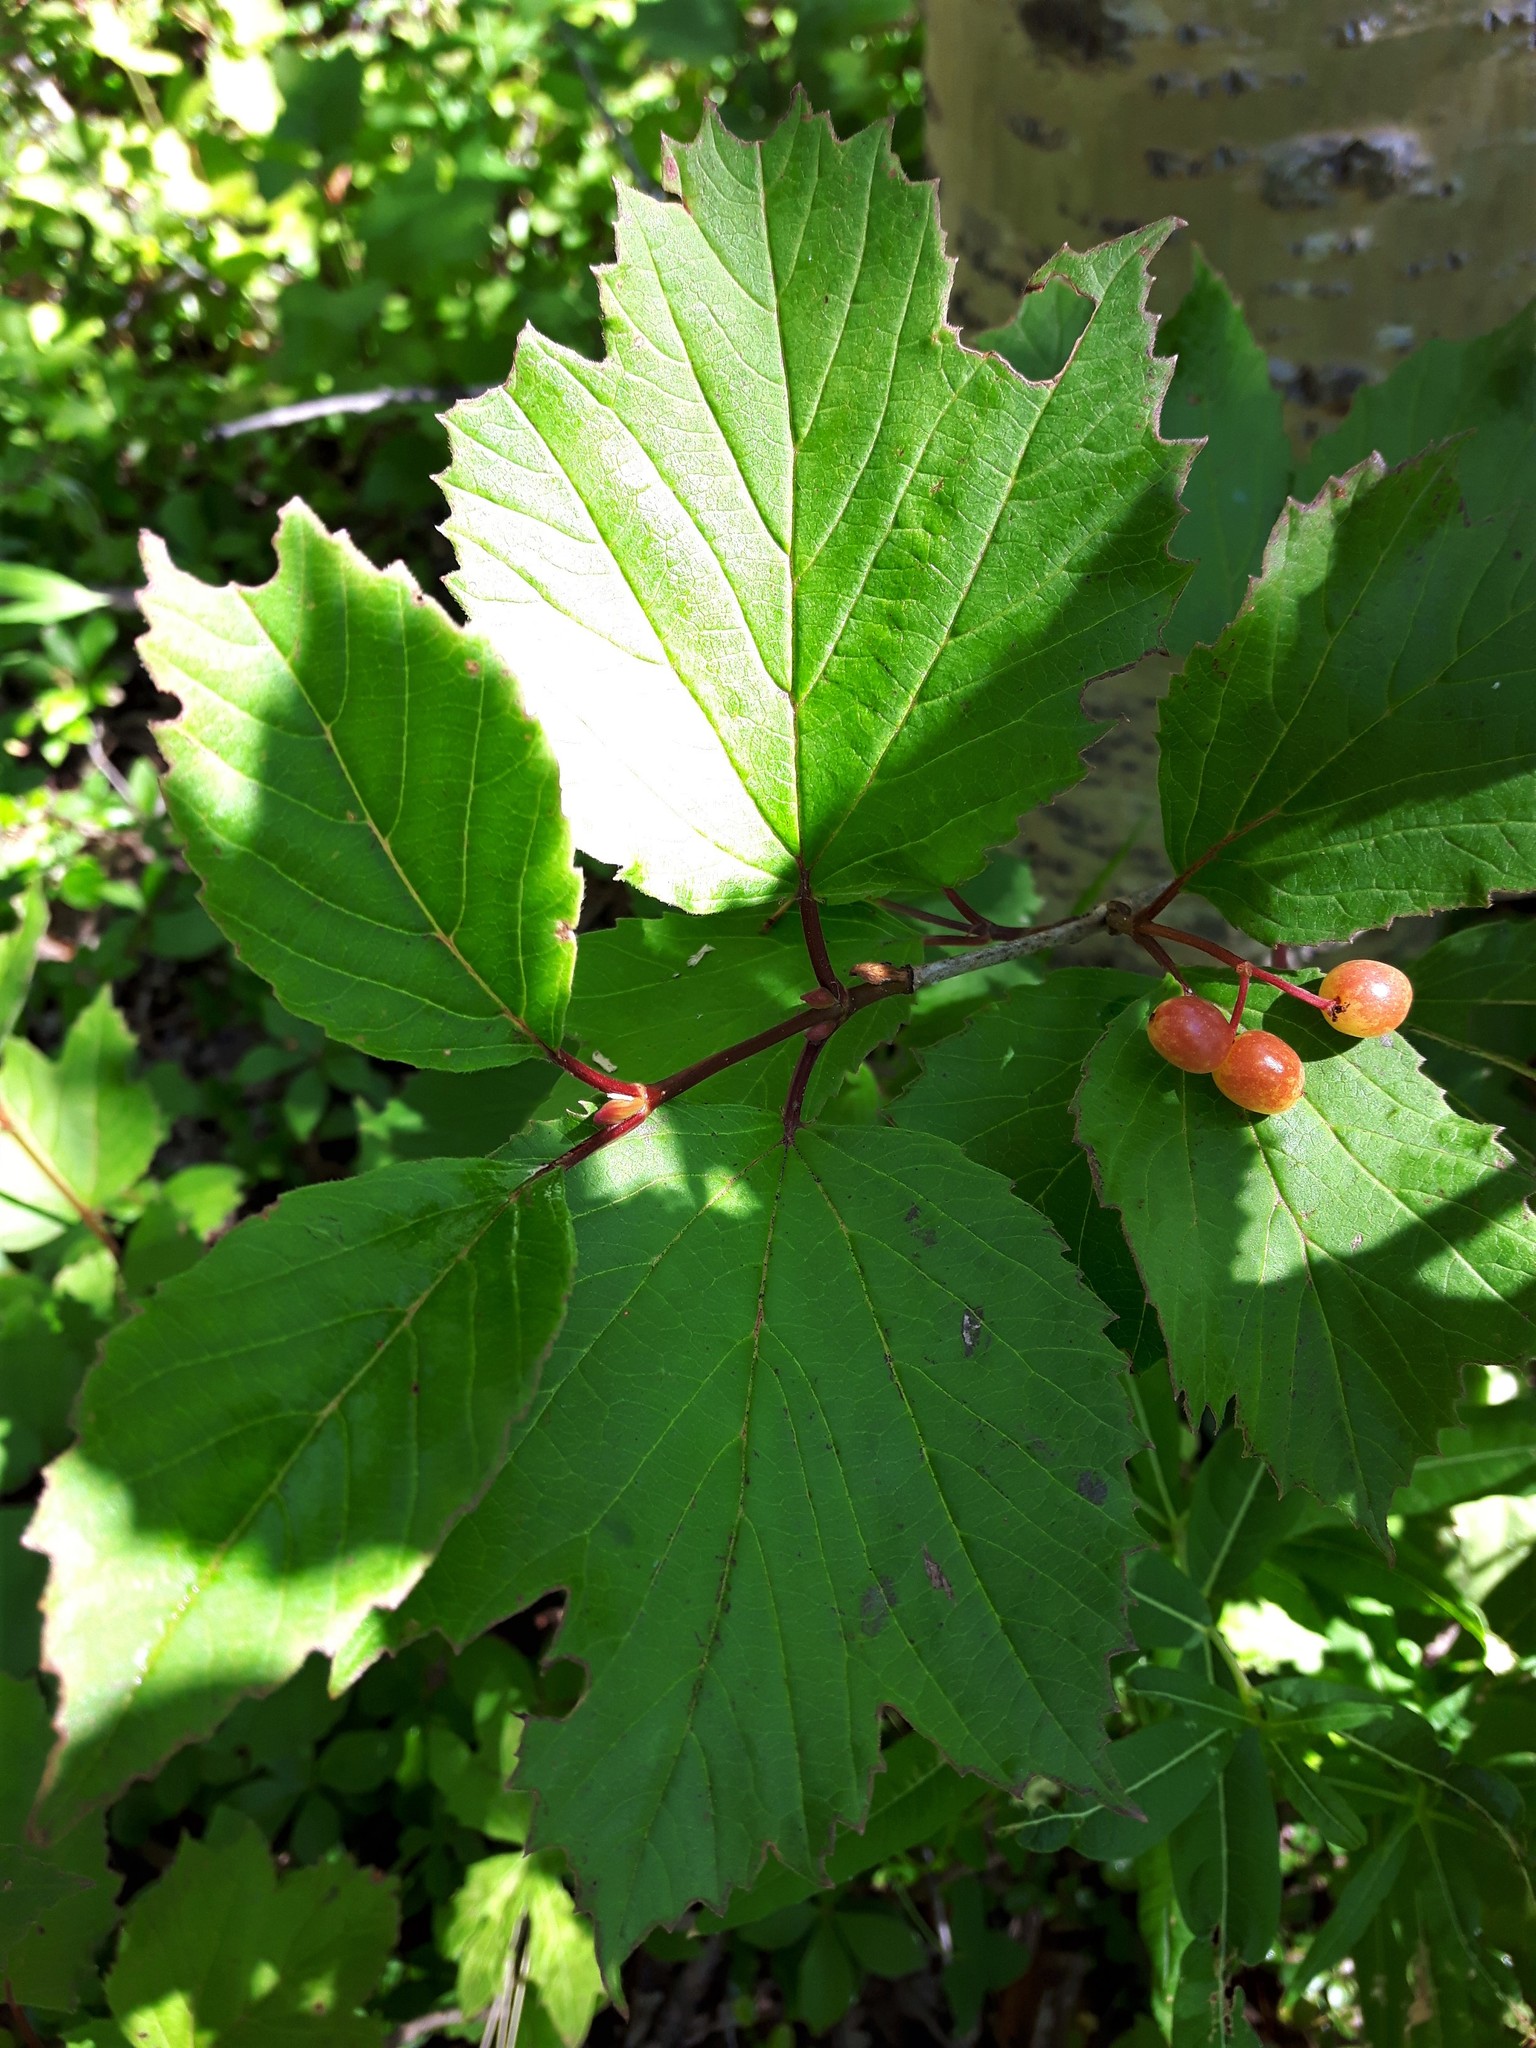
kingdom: Plantae
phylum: Tracheophyta
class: Magnoliopsida
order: Dipsacales
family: Viburnaceae
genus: Viburnum
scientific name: Viburnum edule
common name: Mooseberry
